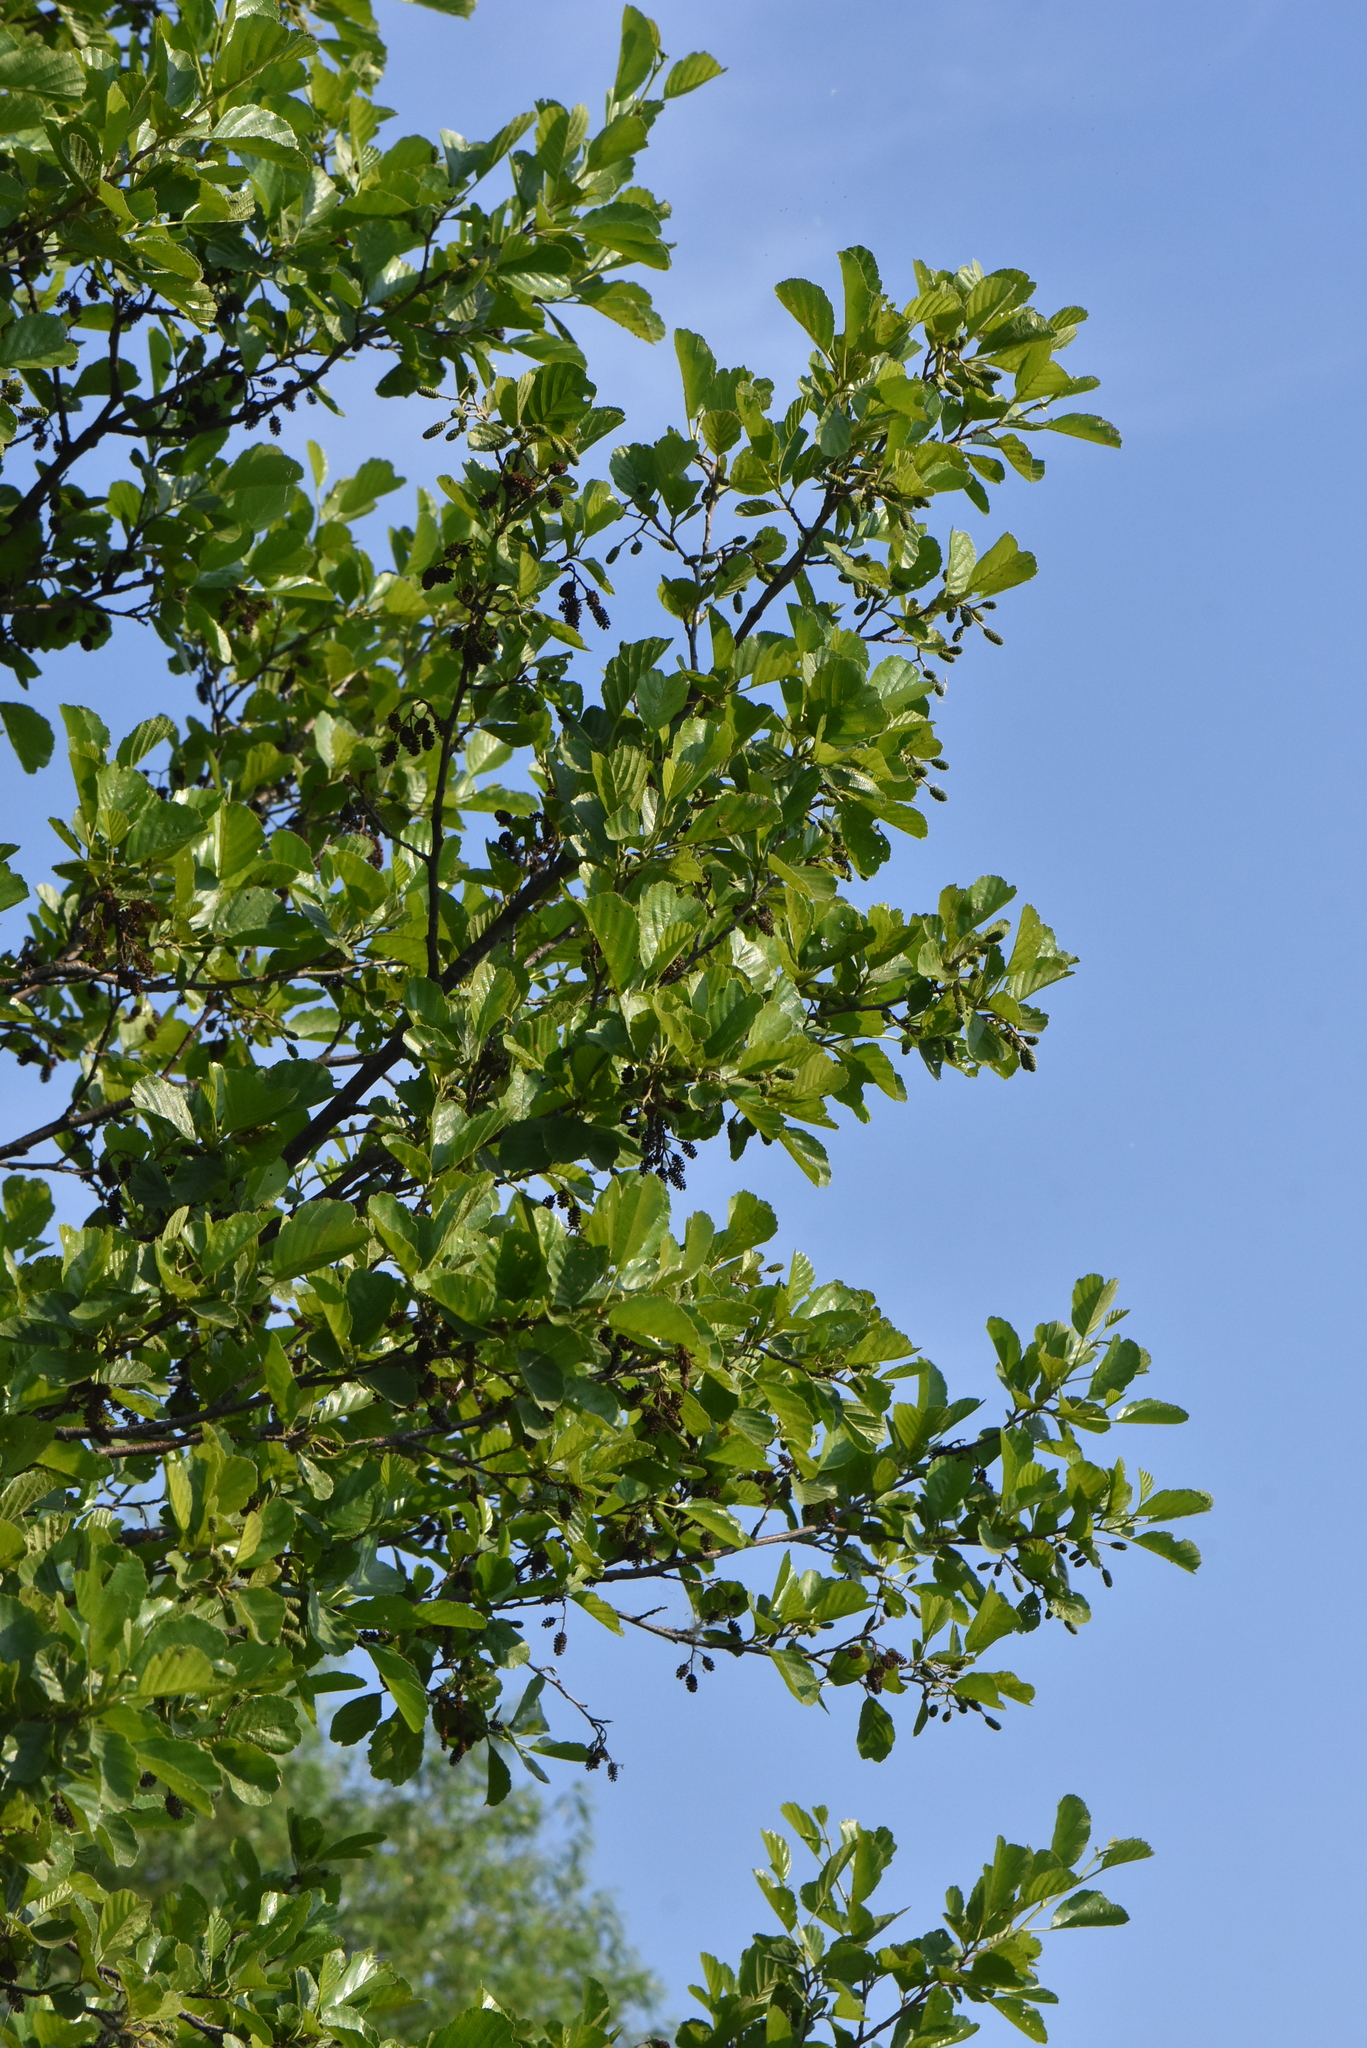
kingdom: Plantae
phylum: Tracheophyta
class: Magnoliopsida
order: Fagales
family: Betulaceae
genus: Alnus
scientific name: Alnus glutinosa
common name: Black alder
